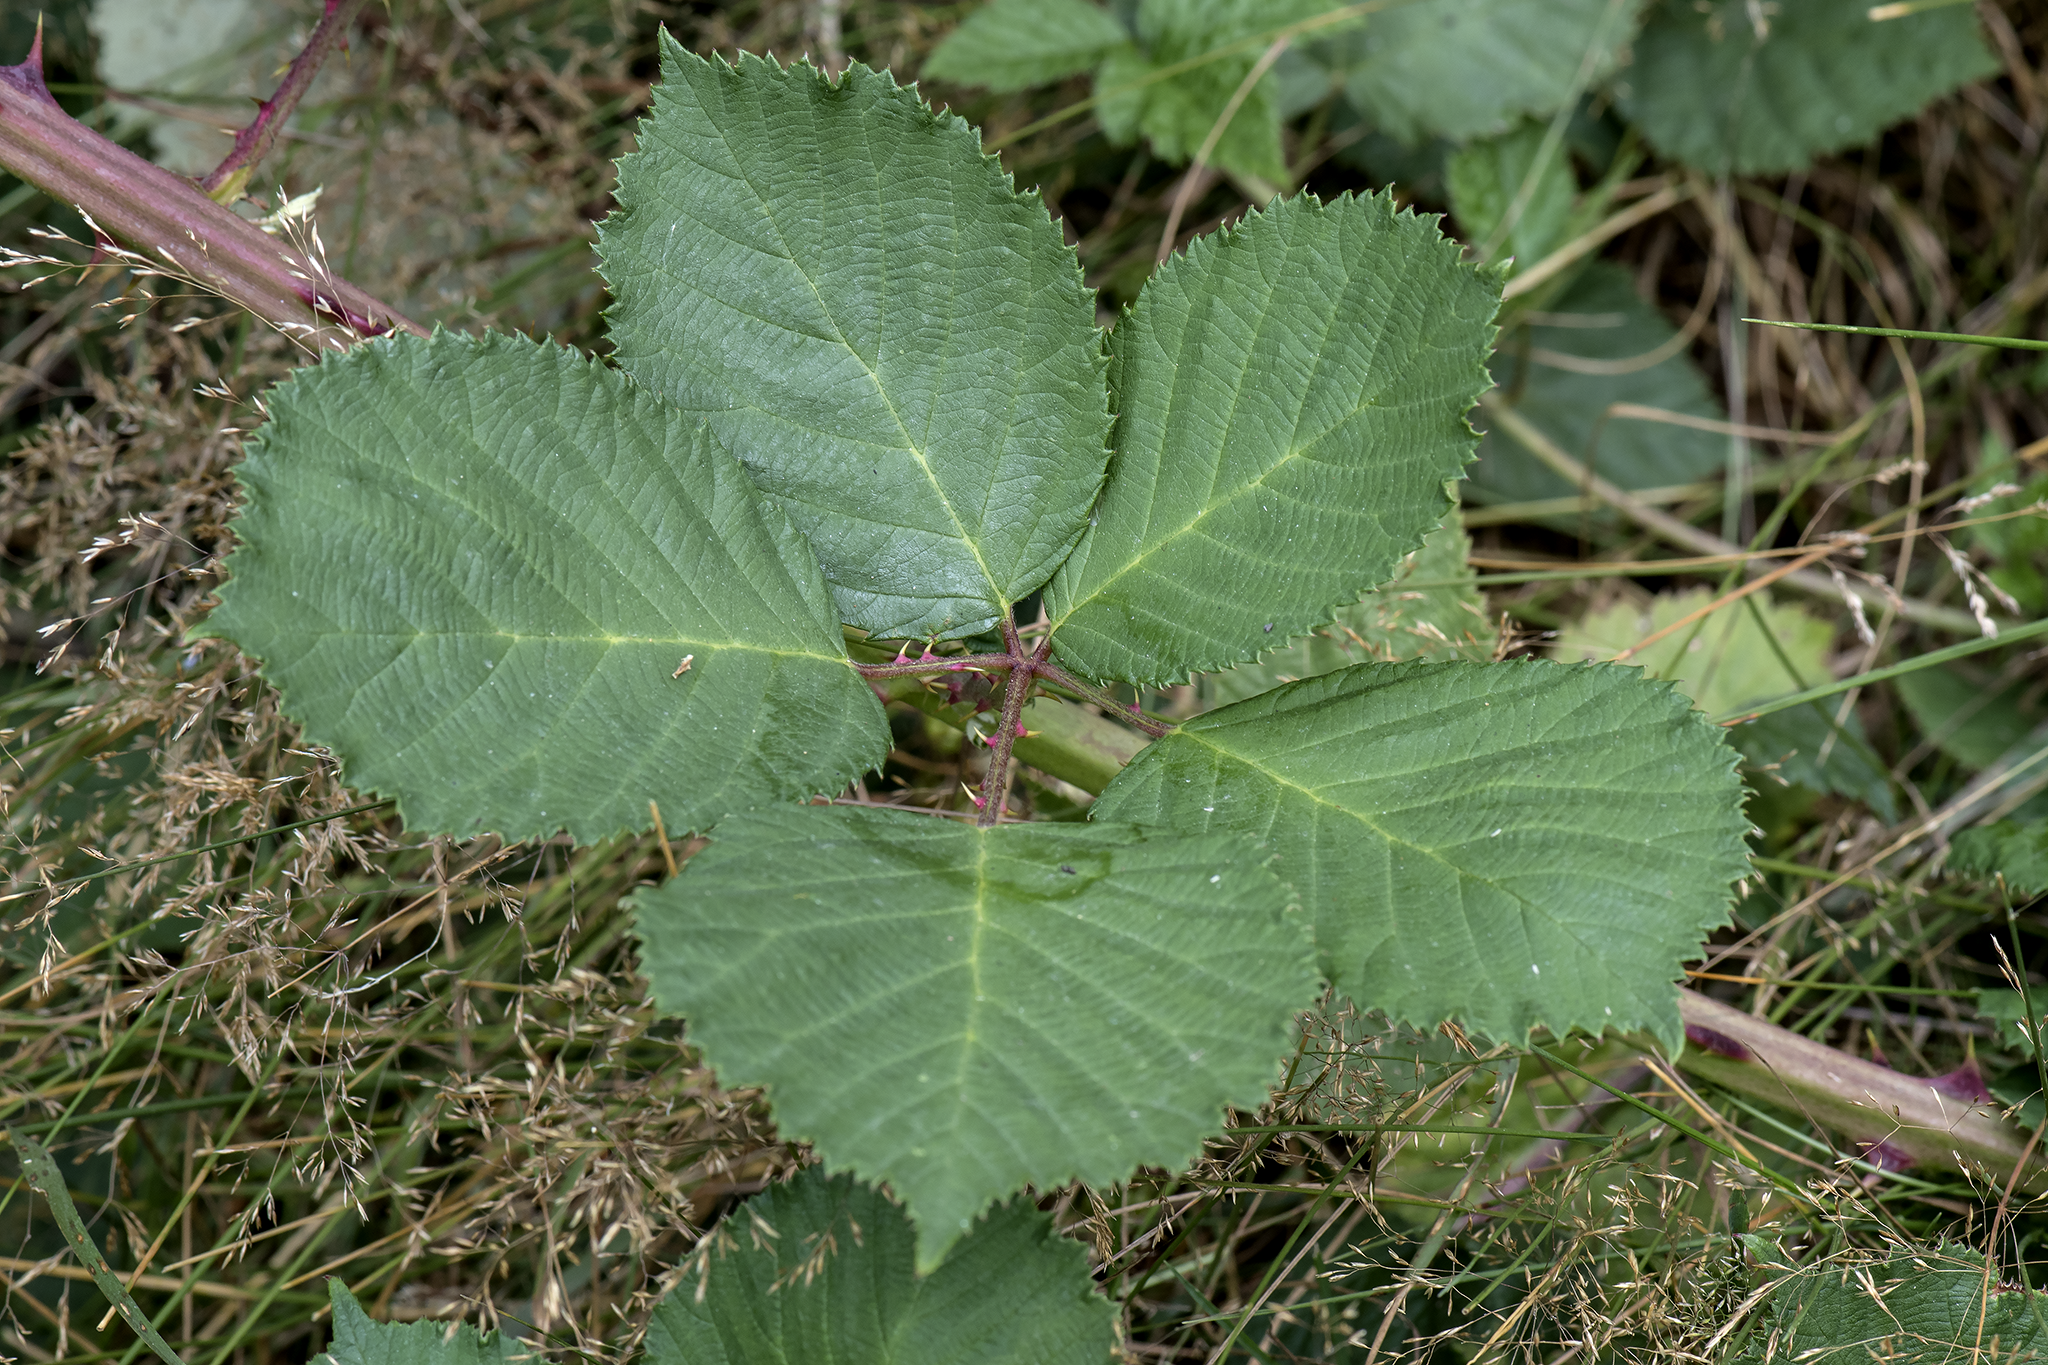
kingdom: Plantae
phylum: Tracheophyta
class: Magnoliopsida
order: Rosales
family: Rosaceae
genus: Rubus
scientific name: Rubus armeniacus
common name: Himalayan blackberry
